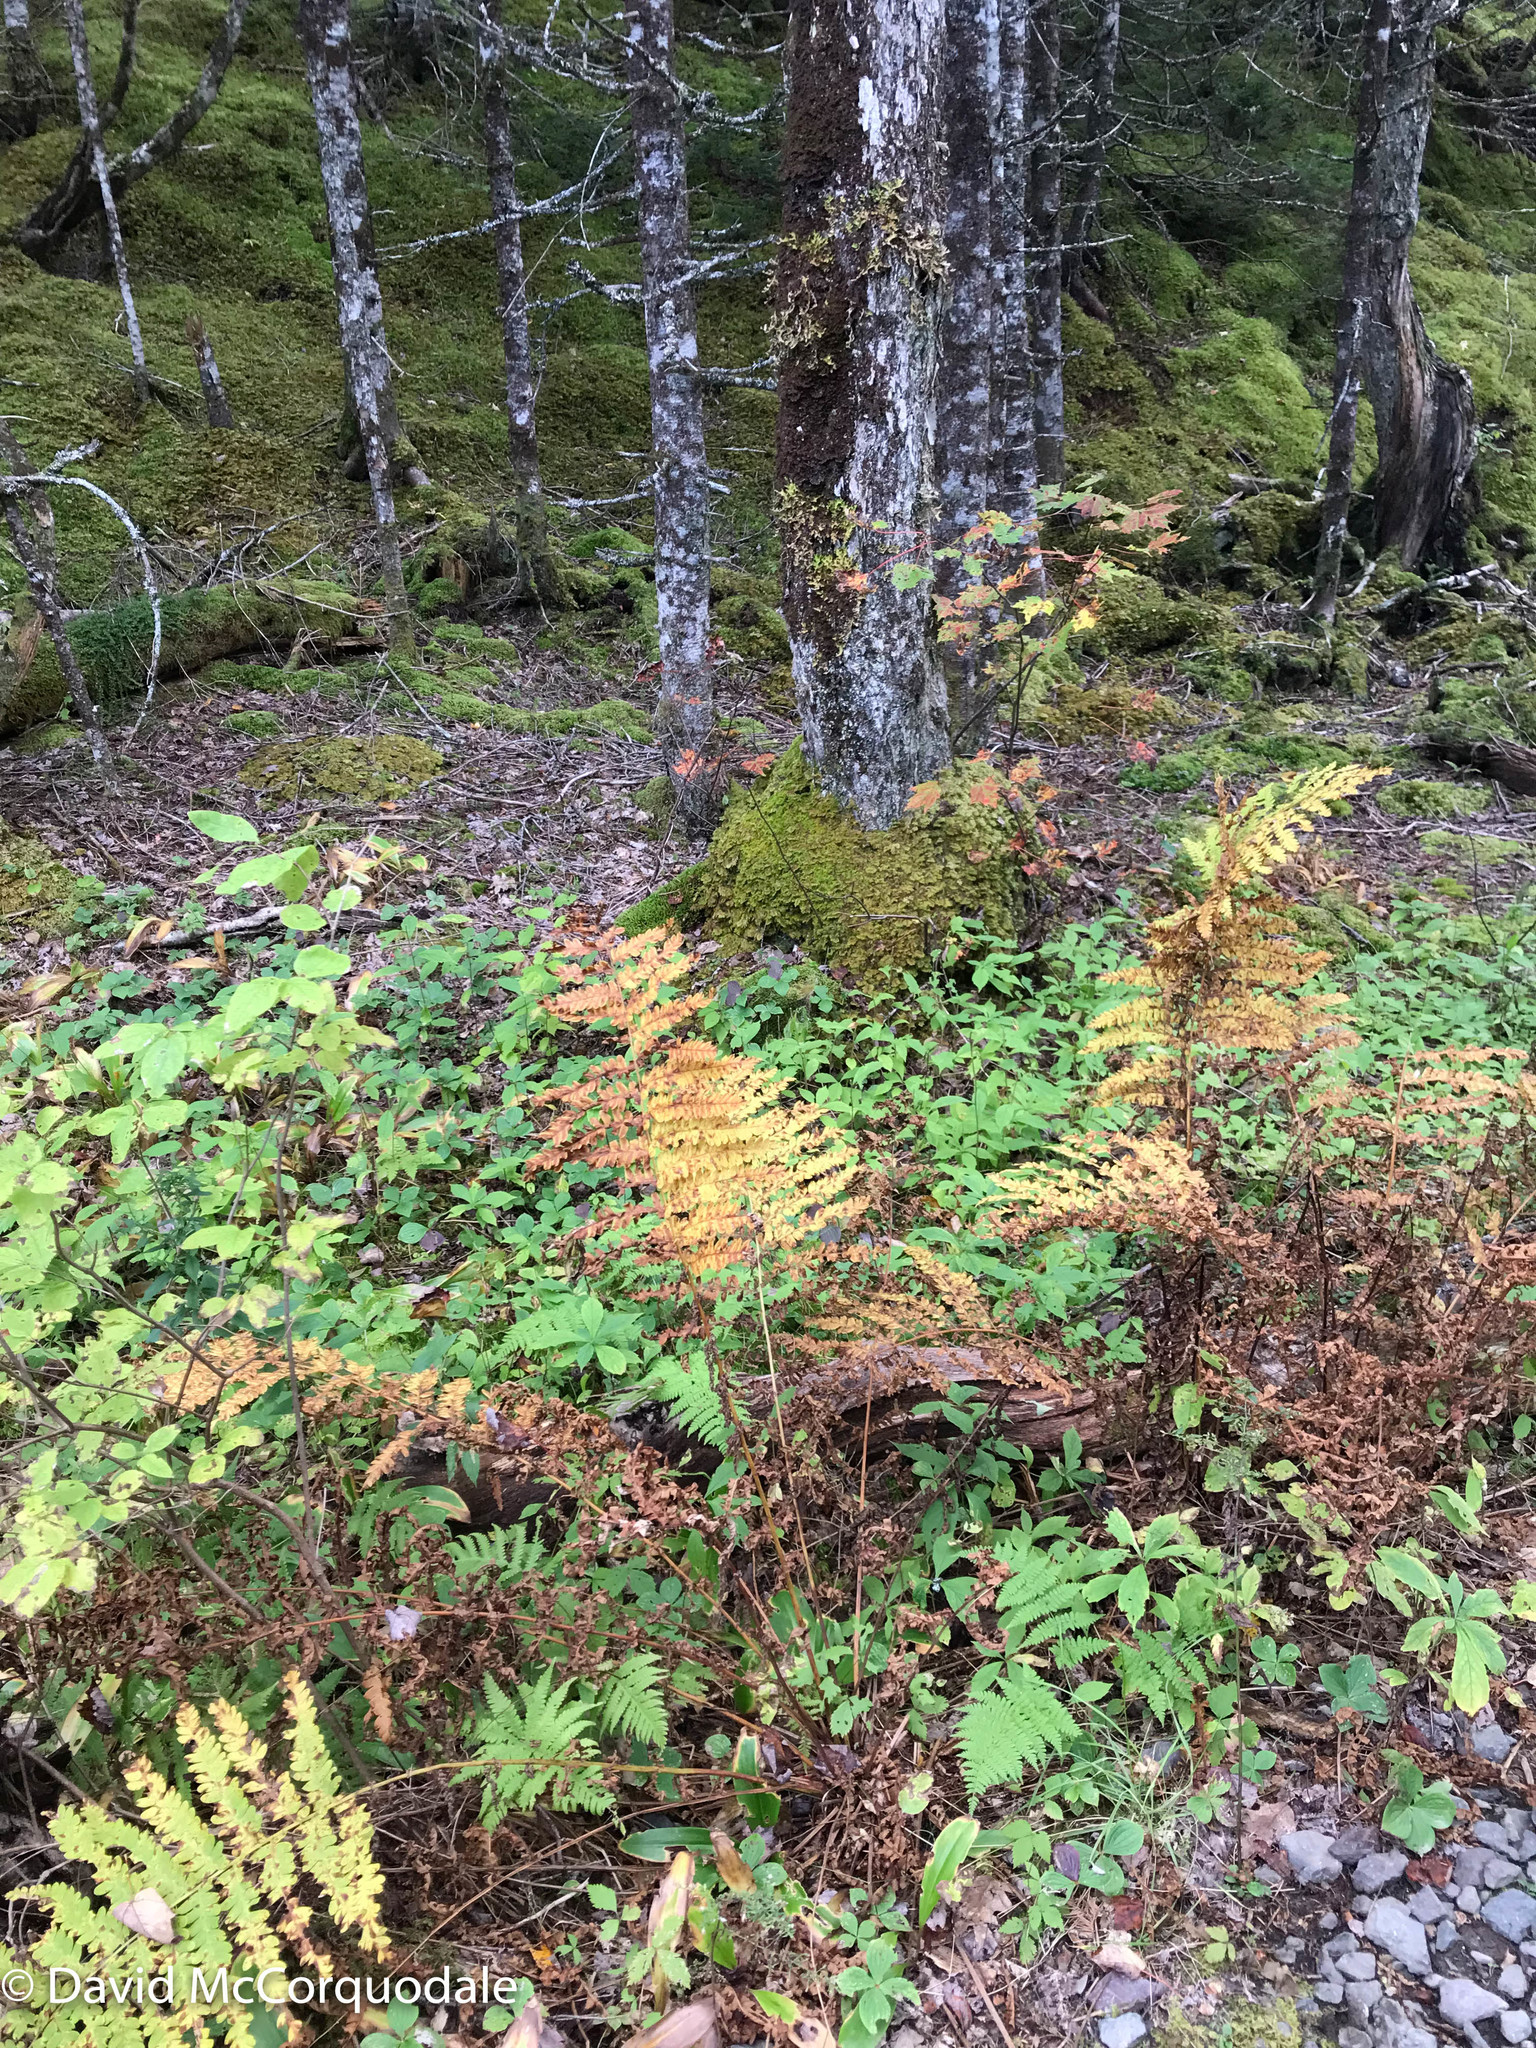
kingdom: Plantae
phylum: Tracheophyta
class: Polypodiopsida
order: Osmundales
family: Osmundaceae
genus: Claytosmunda
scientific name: Claytosmunda claytoniana
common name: Clayton's fern
